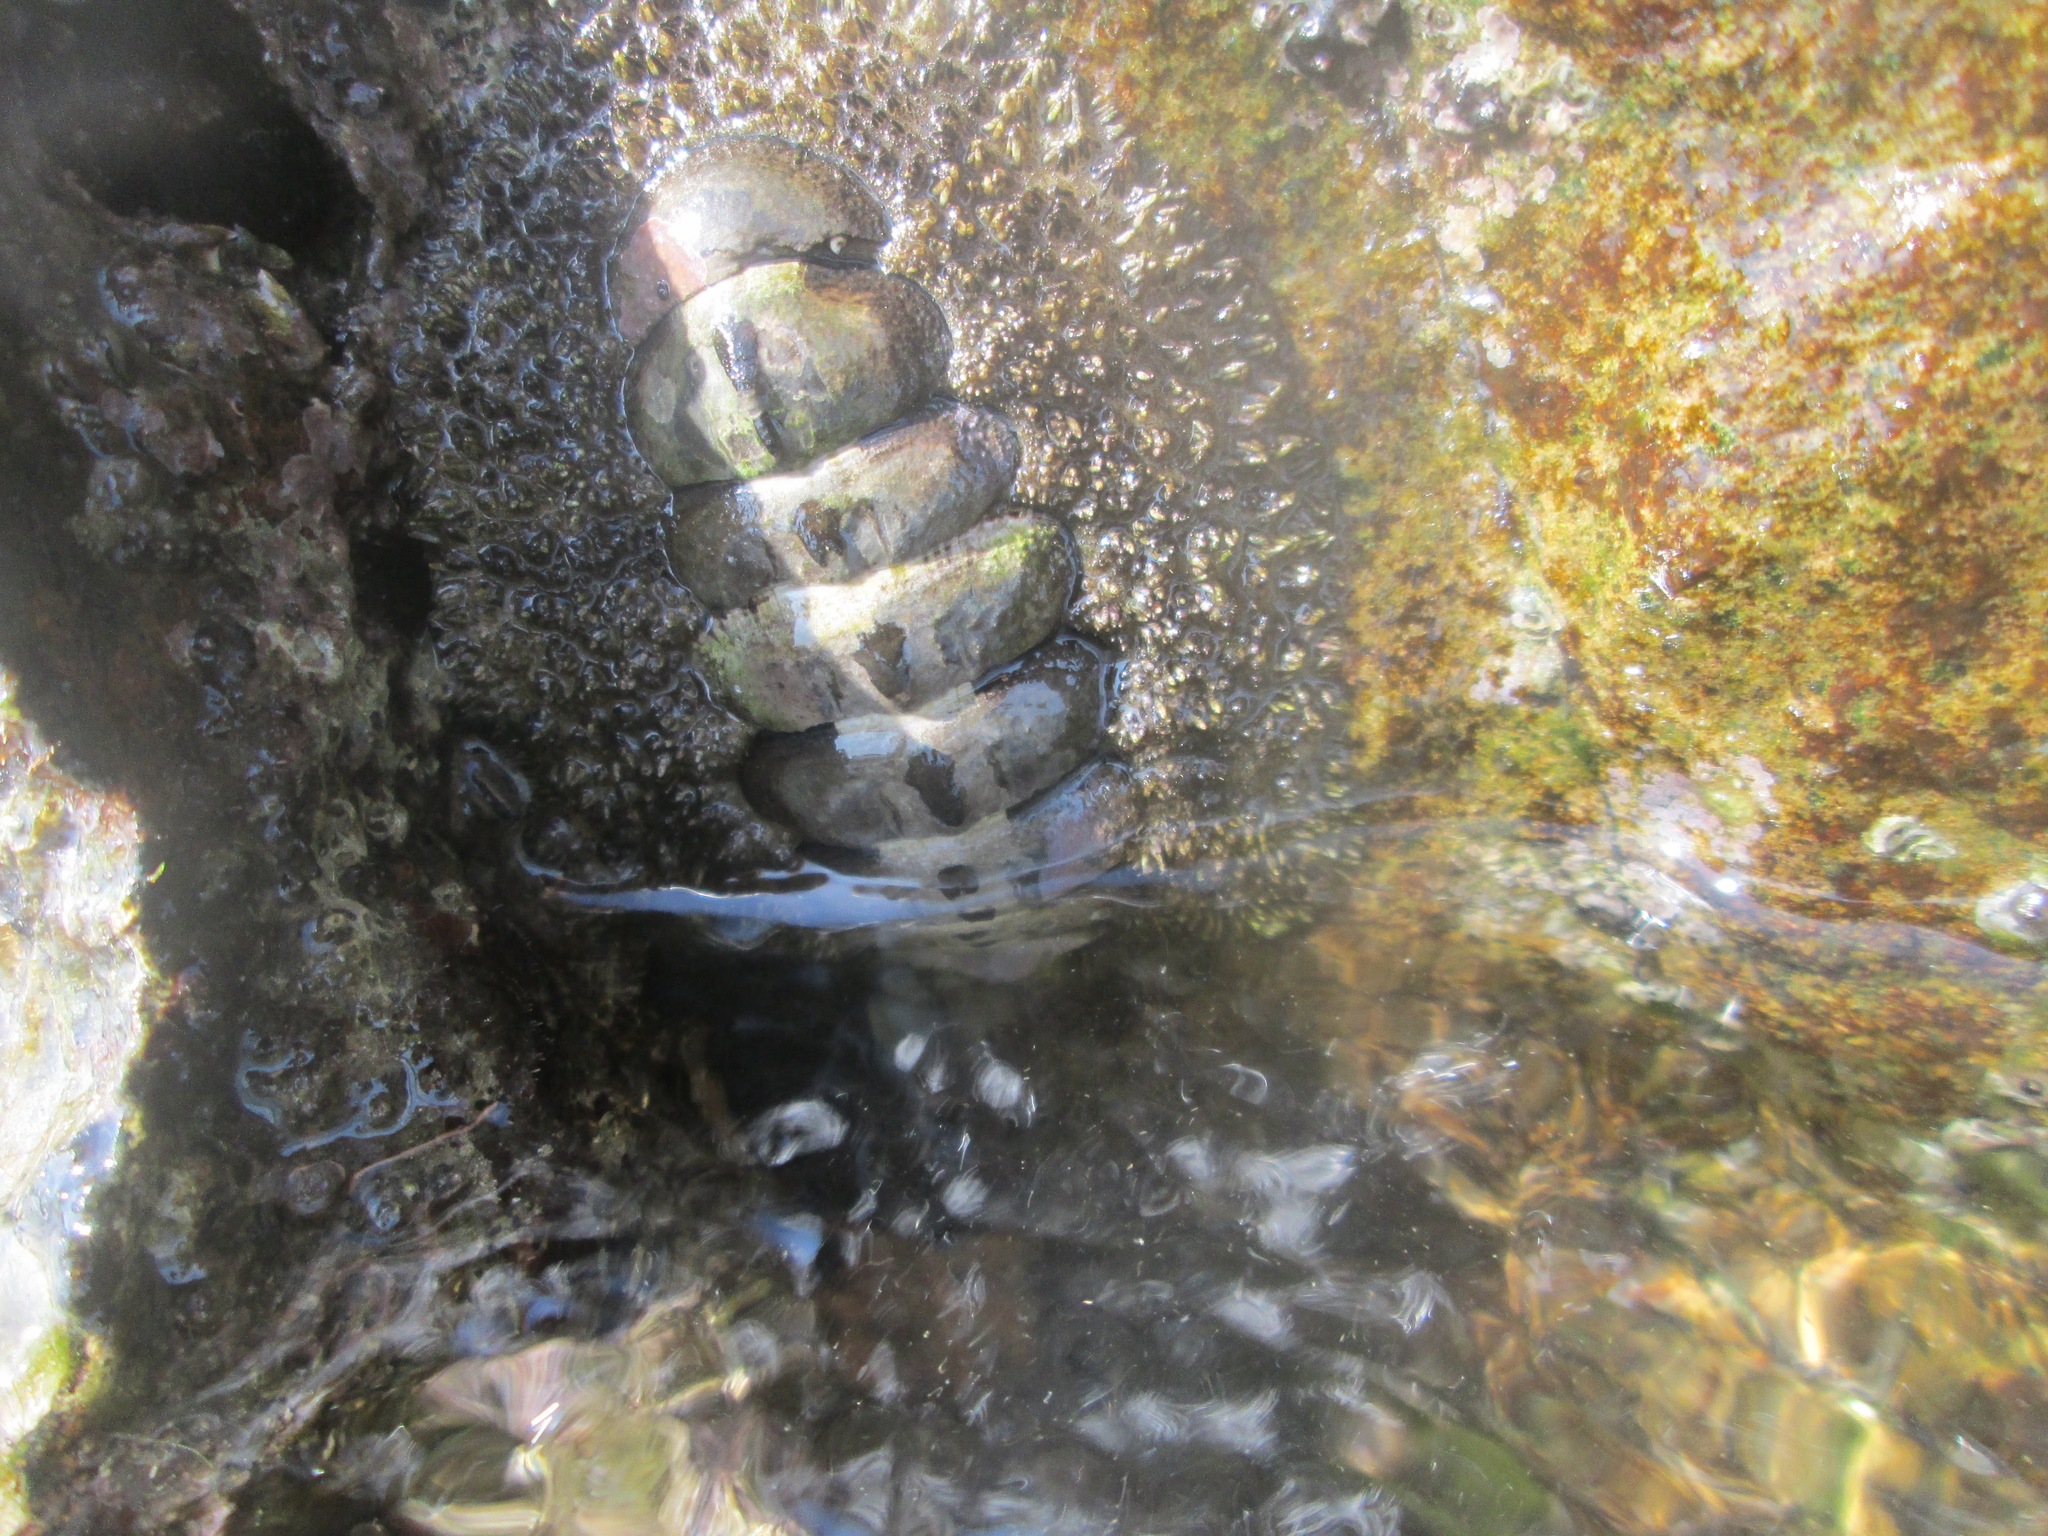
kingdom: Animalia
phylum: Mollusca
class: Polyplacophora
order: Chitonida
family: Chitonidae
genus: Acanthopleura
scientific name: Acanthopleura gemmata
